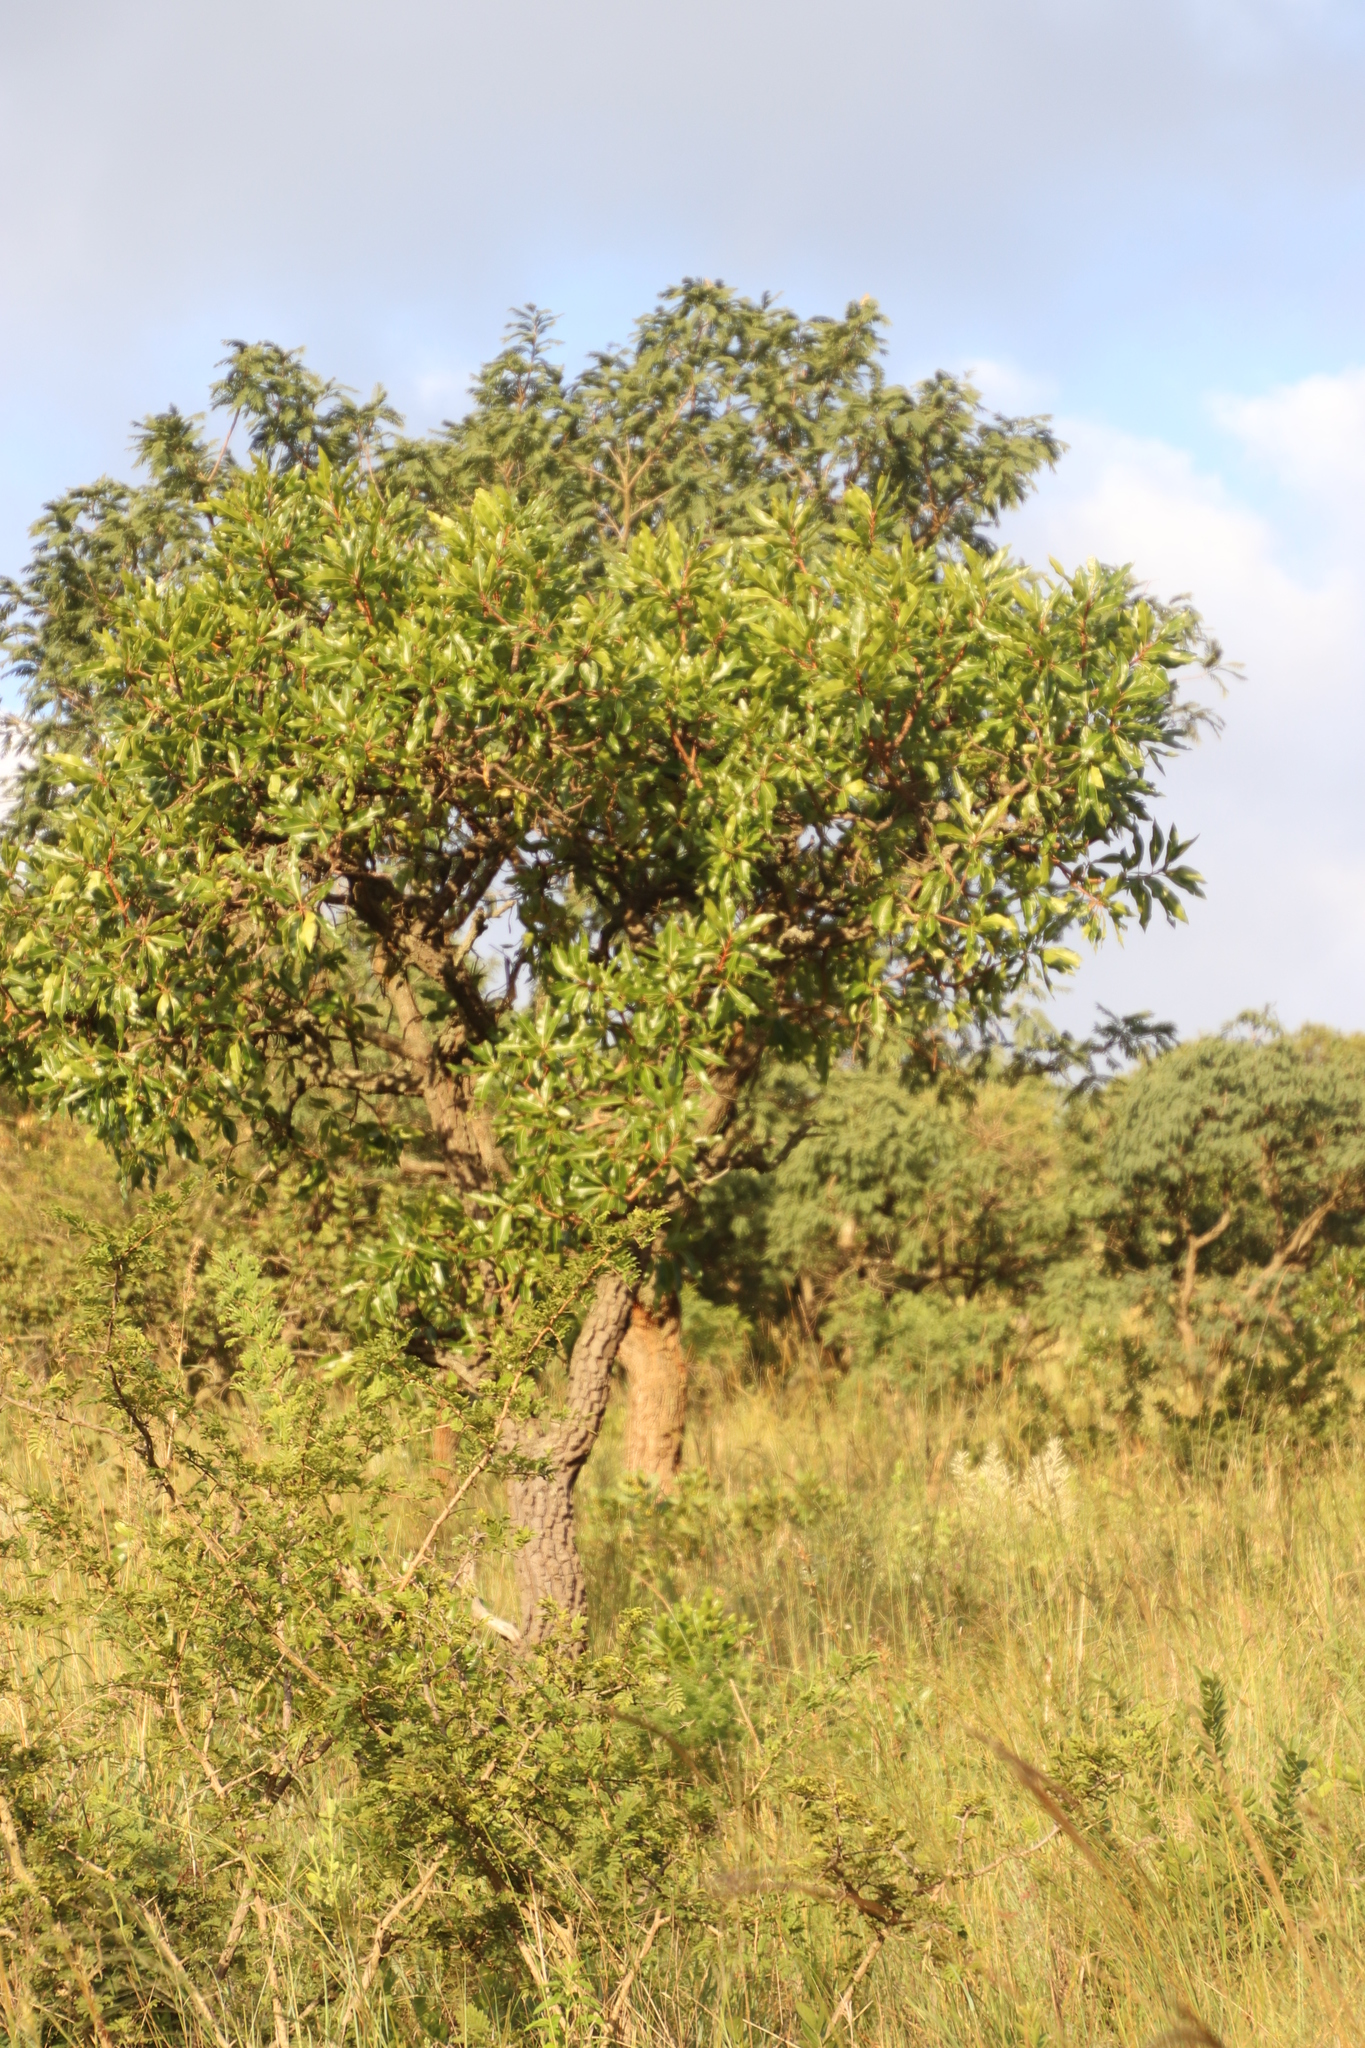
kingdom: Plantae
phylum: Tracheophyta
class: Magnoliopsida
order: Proteales
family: Proteaceae
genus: Faurea
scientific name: Faurea rochetiana
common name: Broad-leaved beech
